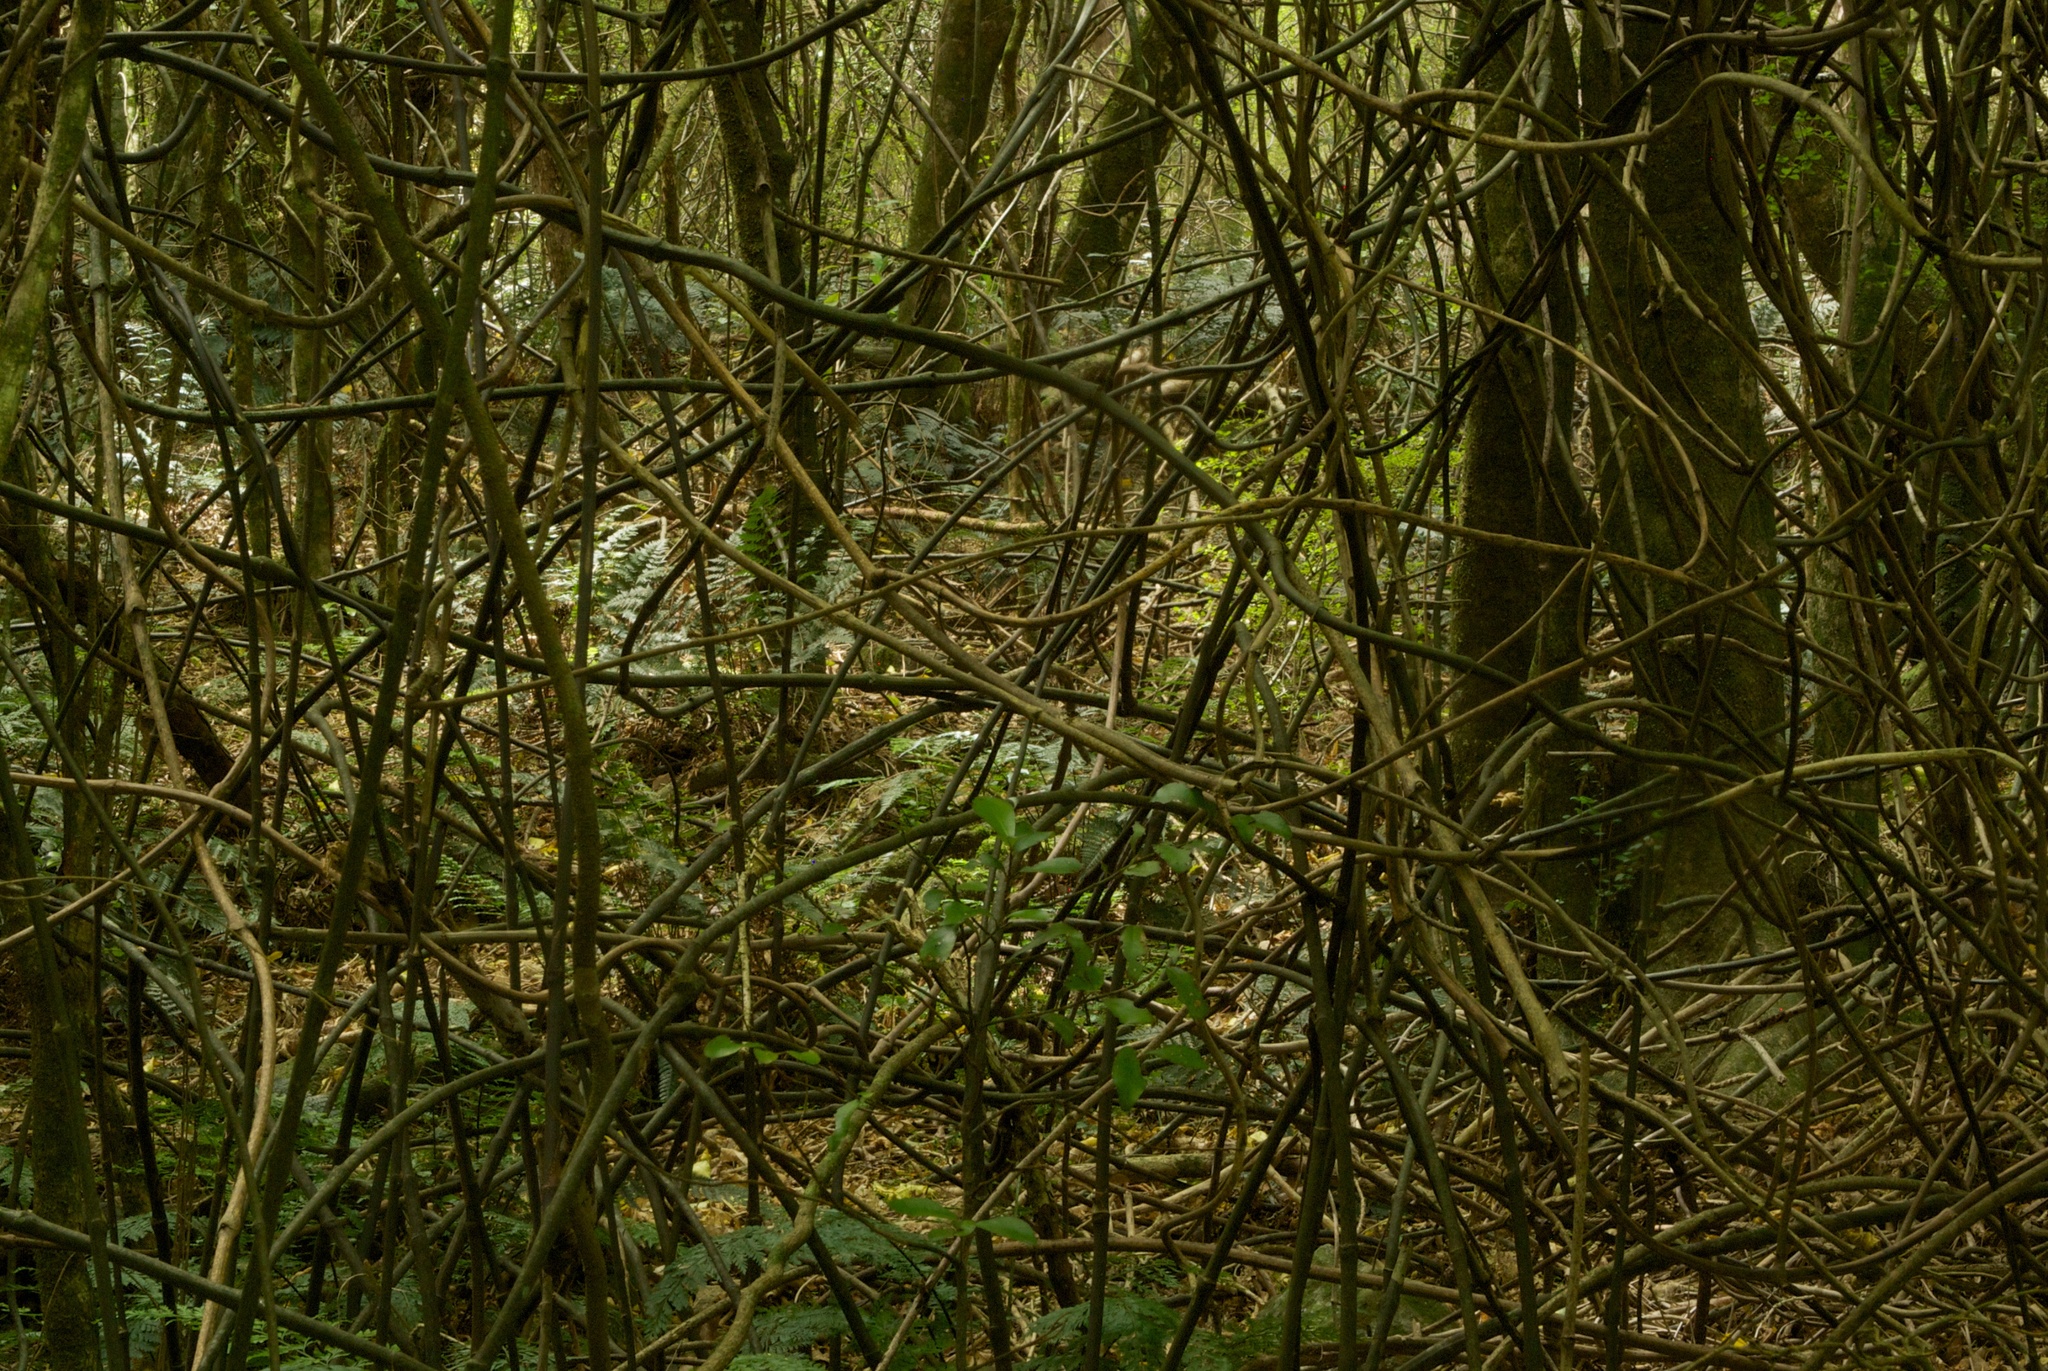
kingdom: Plantae
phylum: Tracheophyta
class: Liliopsida
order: Liliales
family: Ripogonaceae
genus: Ripogonum
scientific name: Ripogonum scandens
